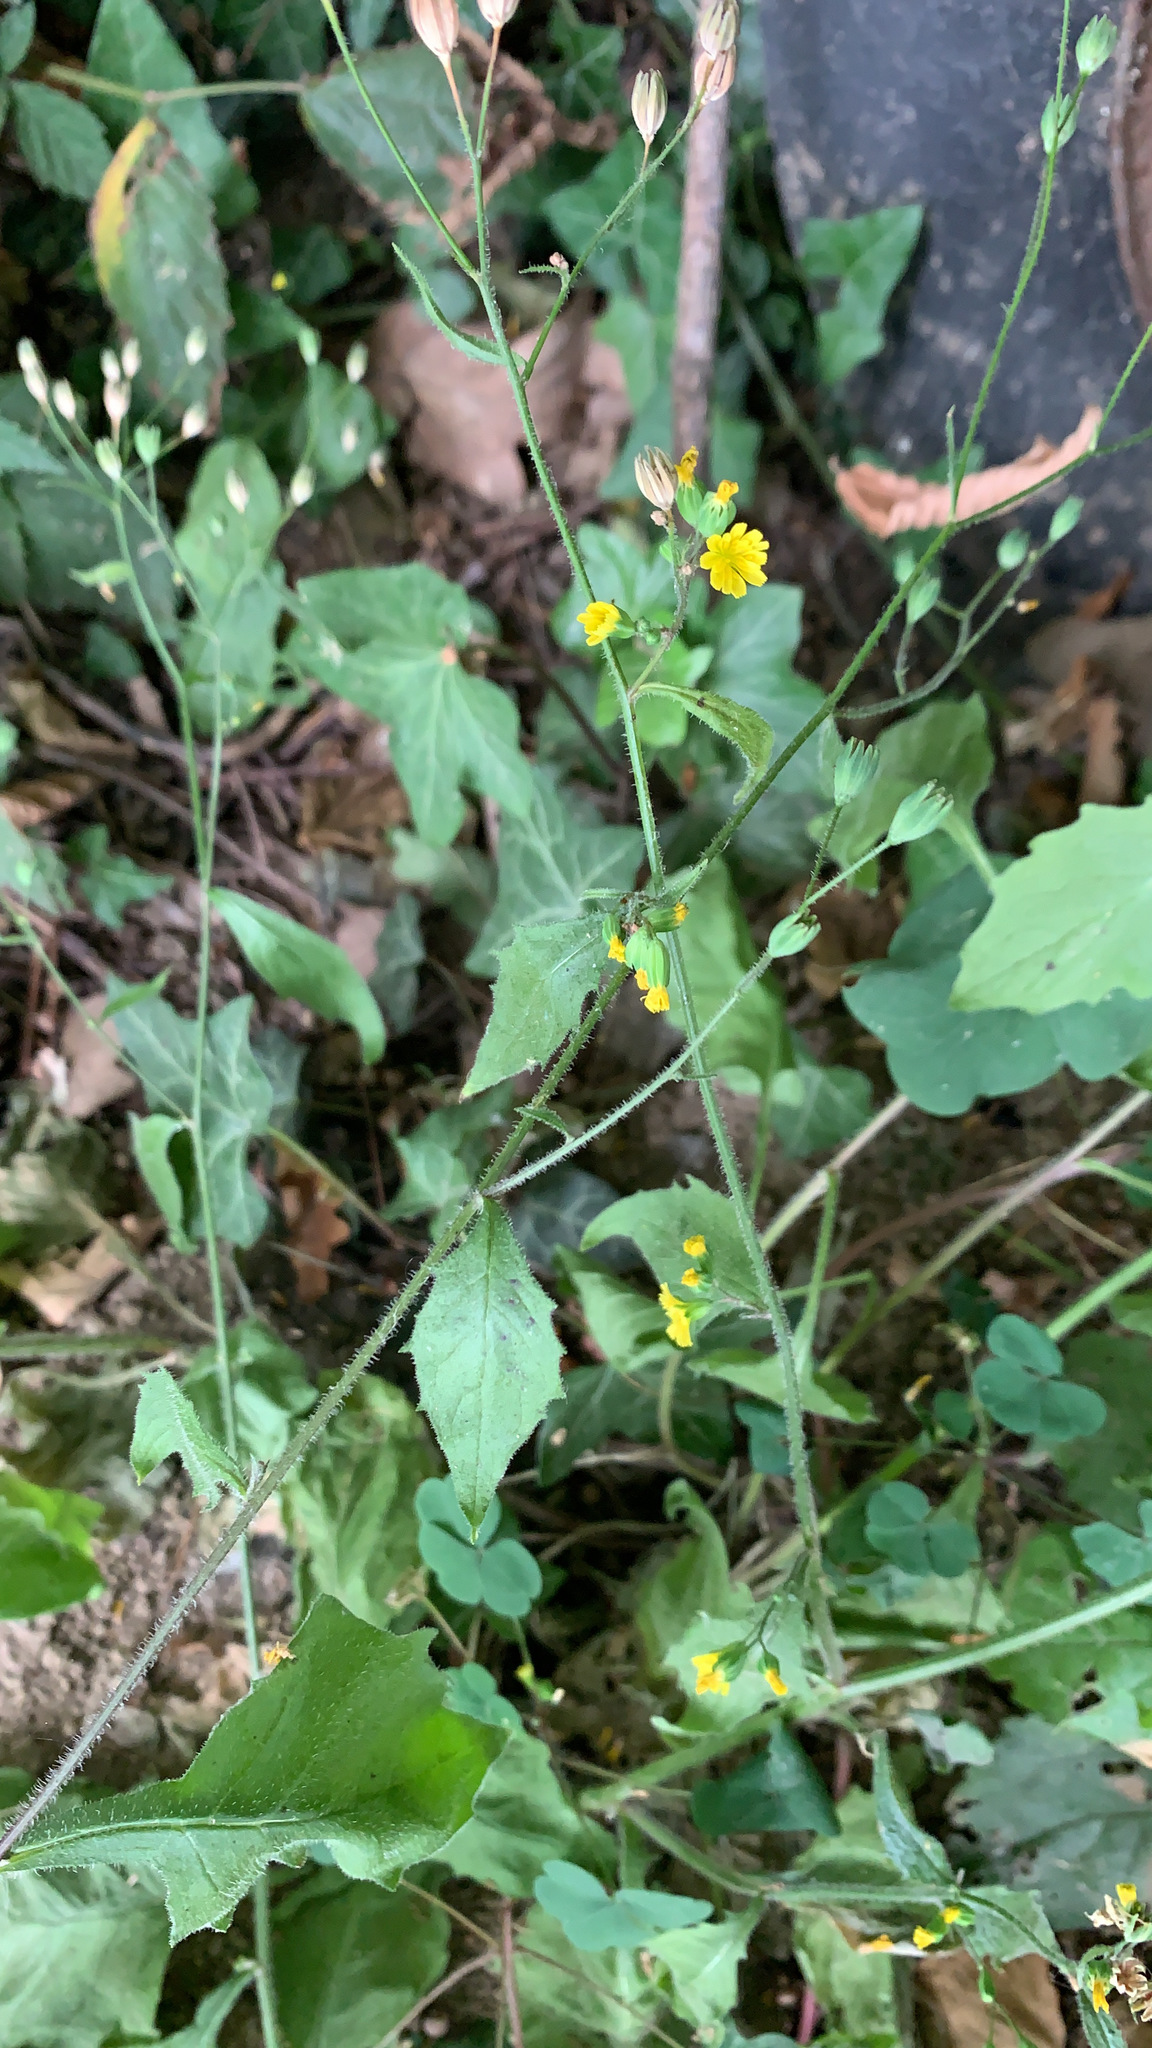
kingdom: Plantae
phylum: Tracheophyta
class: Magnoliopsida
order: Asterales
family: Asteraceae
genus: Lapsana
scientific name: Lapsana communis
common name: Nipplewort
